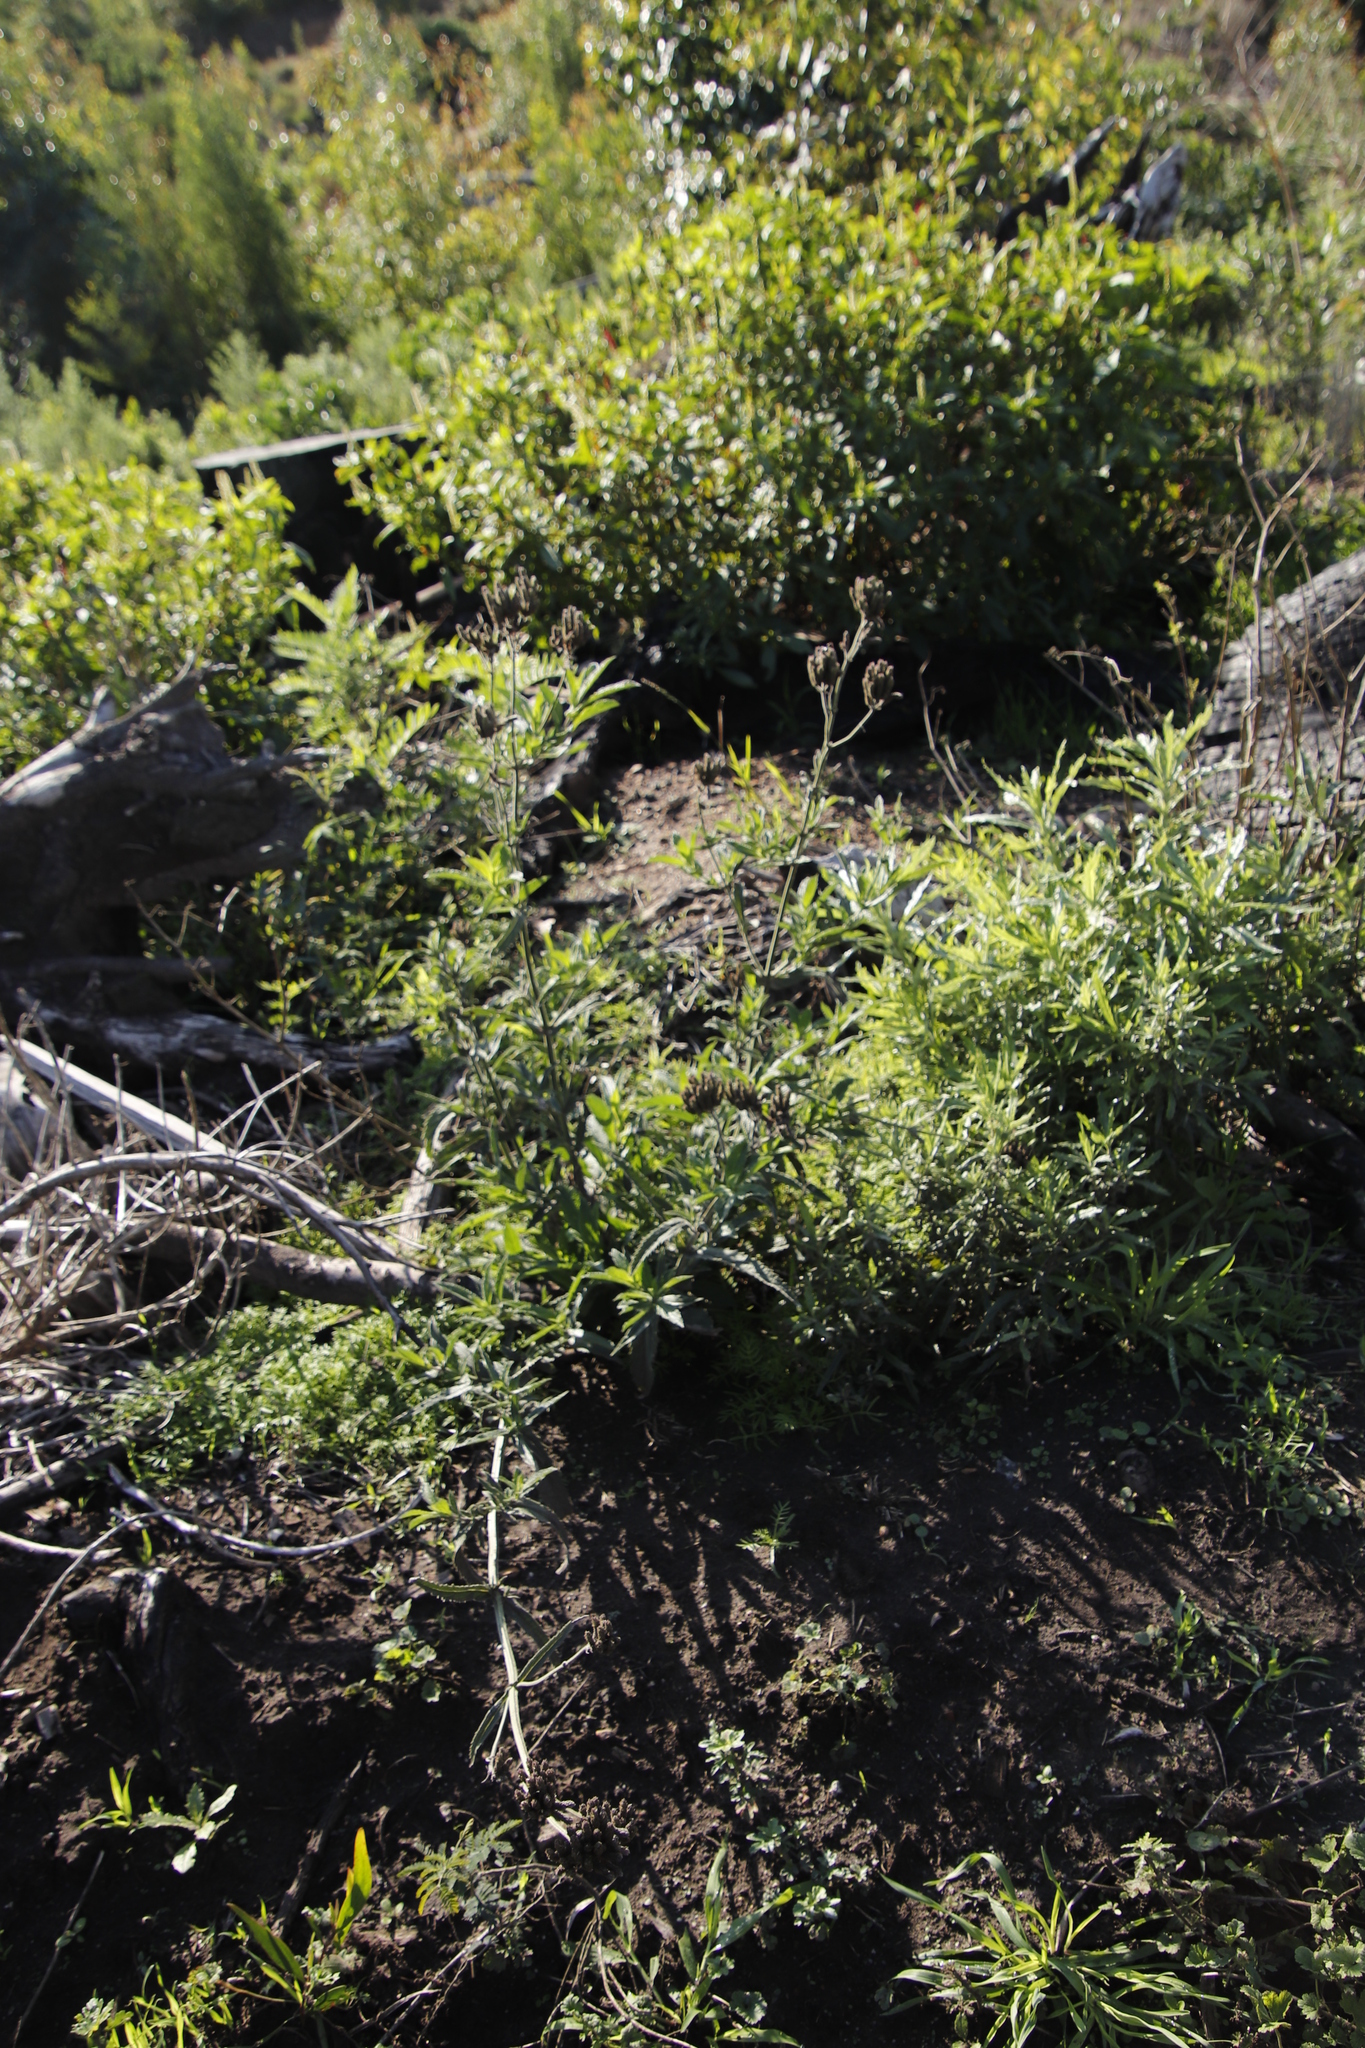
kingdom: Plantae
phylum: Tracheophyta
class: Magnoliopsida
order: Lamiales
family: Verbenaceae
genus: Verbena
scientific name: Verbena bonariensis
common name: Purpletop vervain
